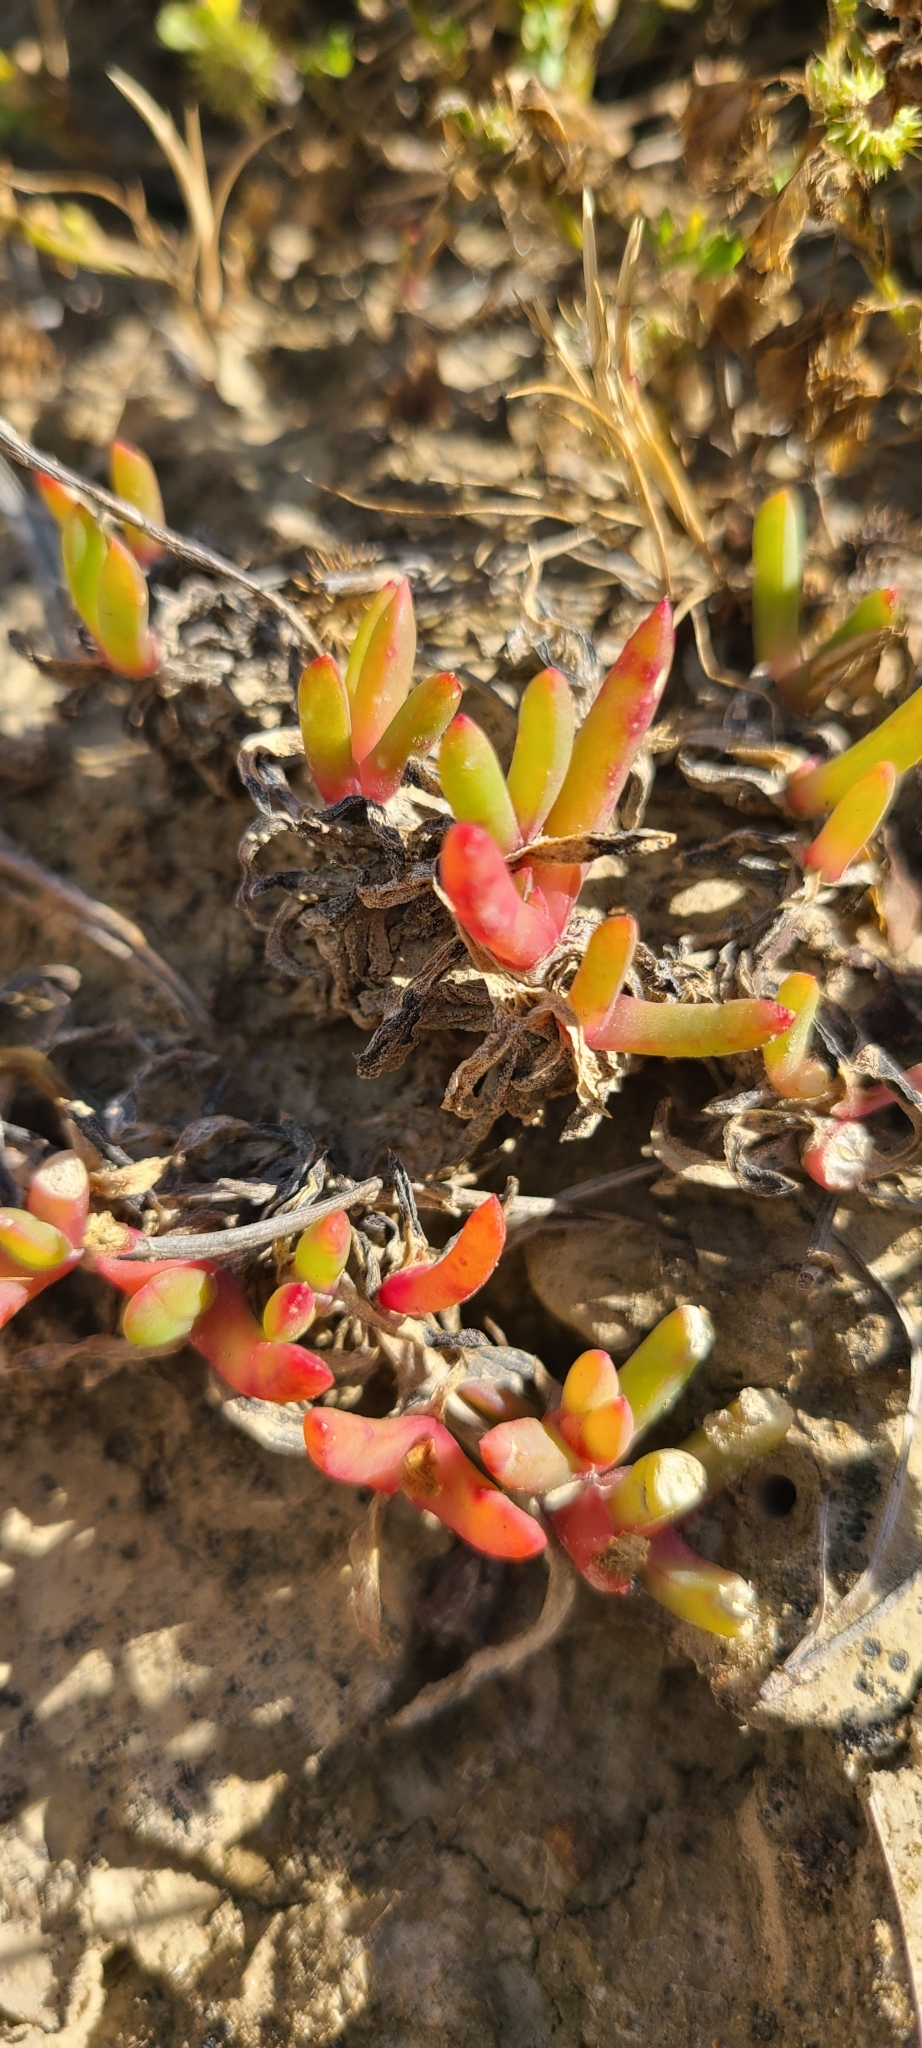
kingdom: Plantae
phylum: Tracheophyta
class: Magnoliopsida
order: Caryophyllales
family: Aizoaceae
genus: Disphyma
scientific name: Disphyma australe
